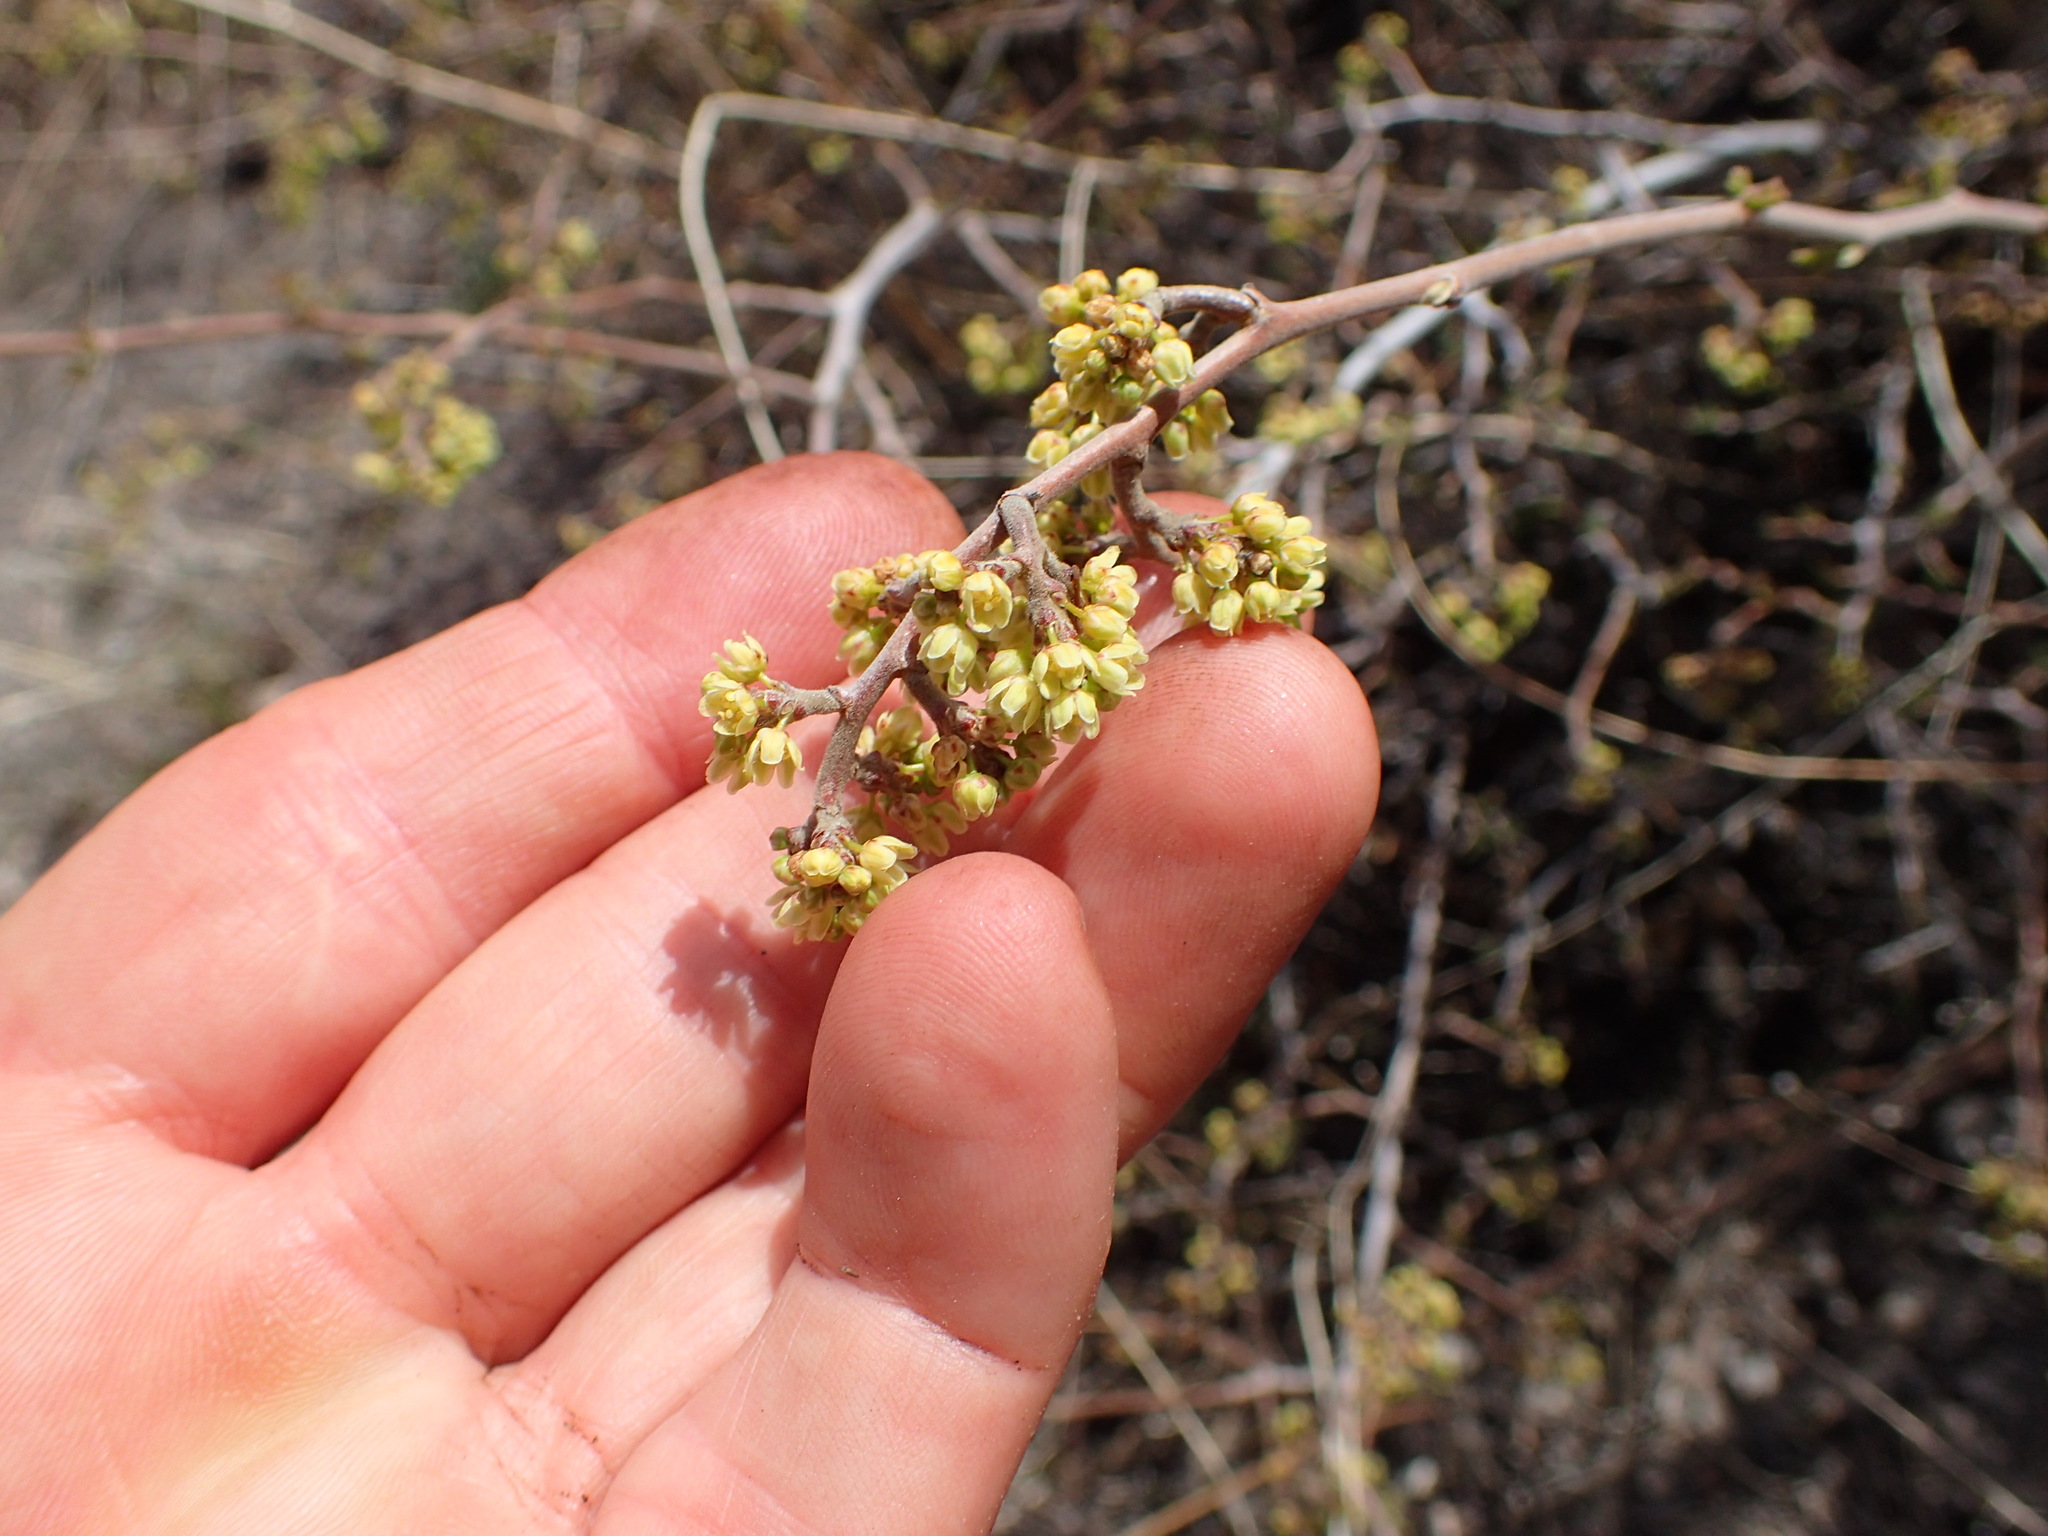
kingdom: Plantae
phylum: Tracheophyta
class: Magnoliopsida
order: Sapindales
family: Anacardiaceae
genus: Rhus
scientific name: Rhus aromatica
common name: Aromatic sumac
